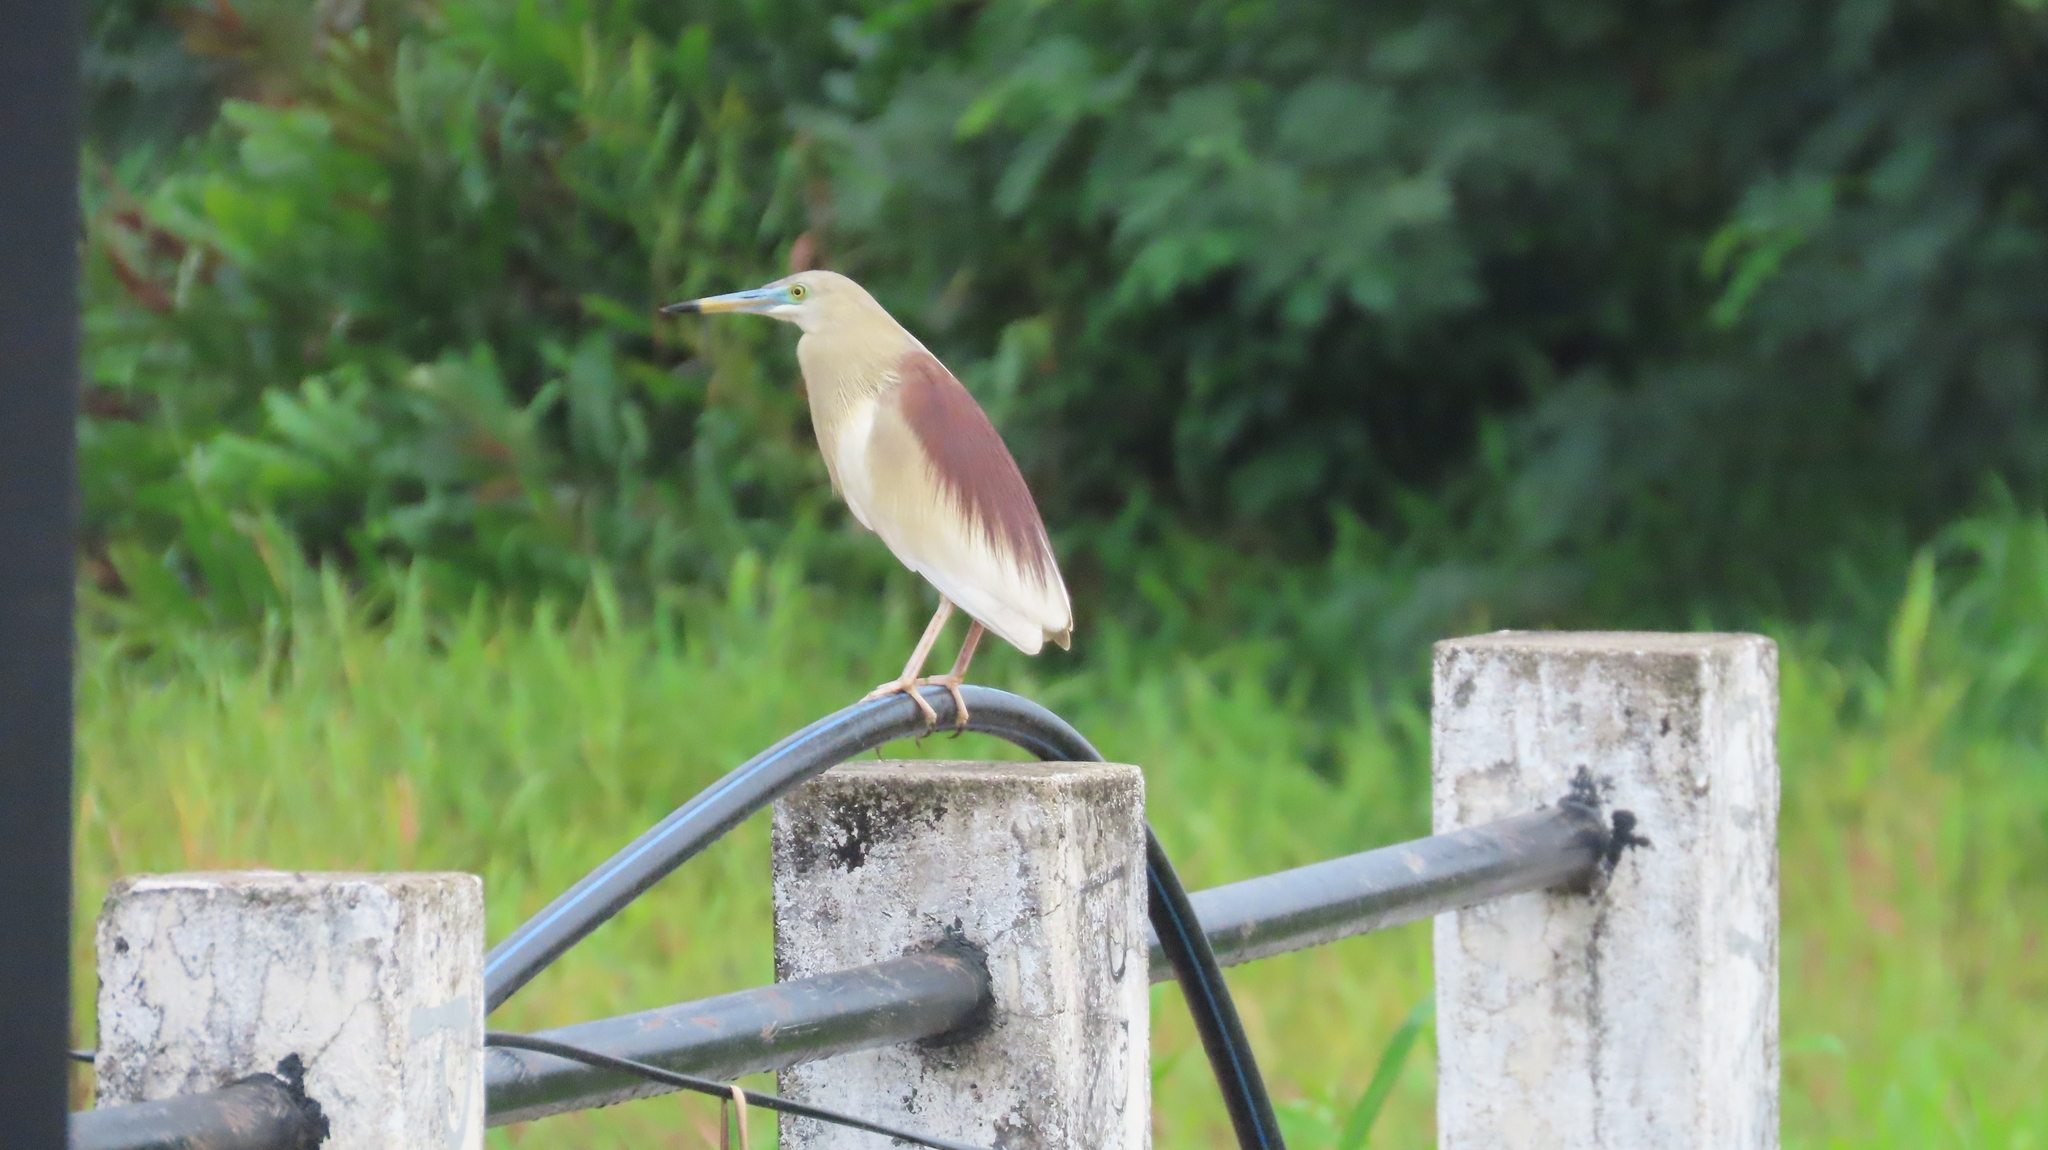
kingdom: Animalia
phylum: Chordata
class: Aves
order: Pelecaniformes
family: Ardeidae
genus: Ardeola
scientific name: Ardeola grayii
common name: Indian pond heron
